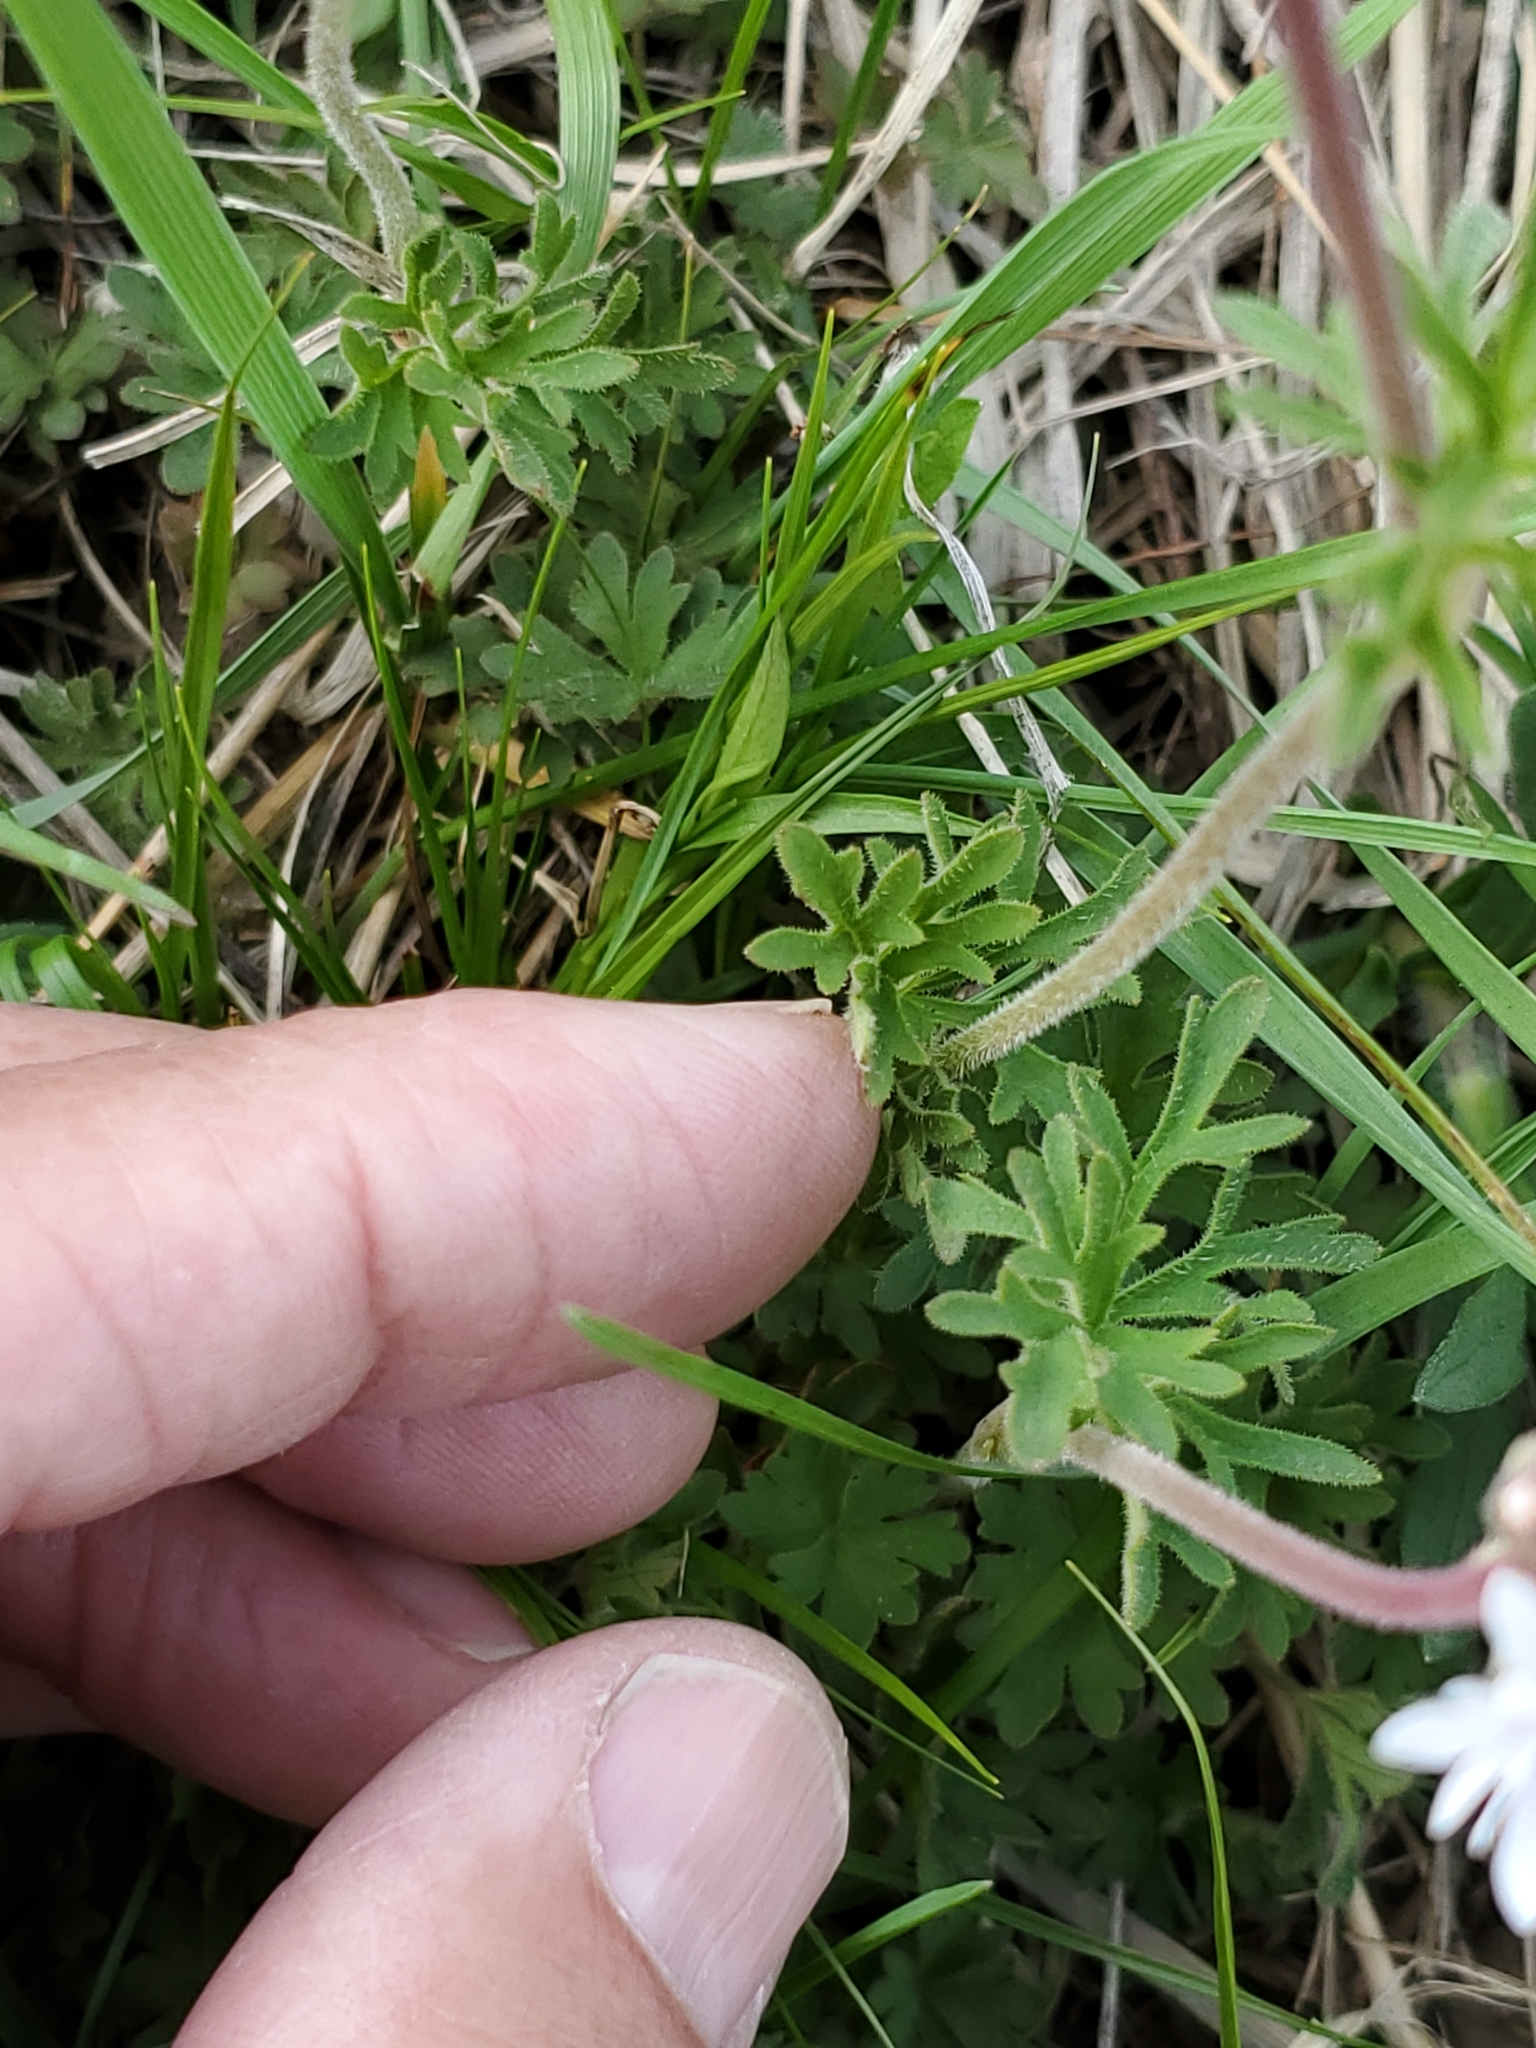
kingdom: Plantae
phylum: Tracheophyta
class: Magnoliopsida
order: Saxifragales
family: Saxifragaceae
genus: Lithophragma
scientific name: Lithophragma parviflorum
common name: Small-flowered fringe-cup
